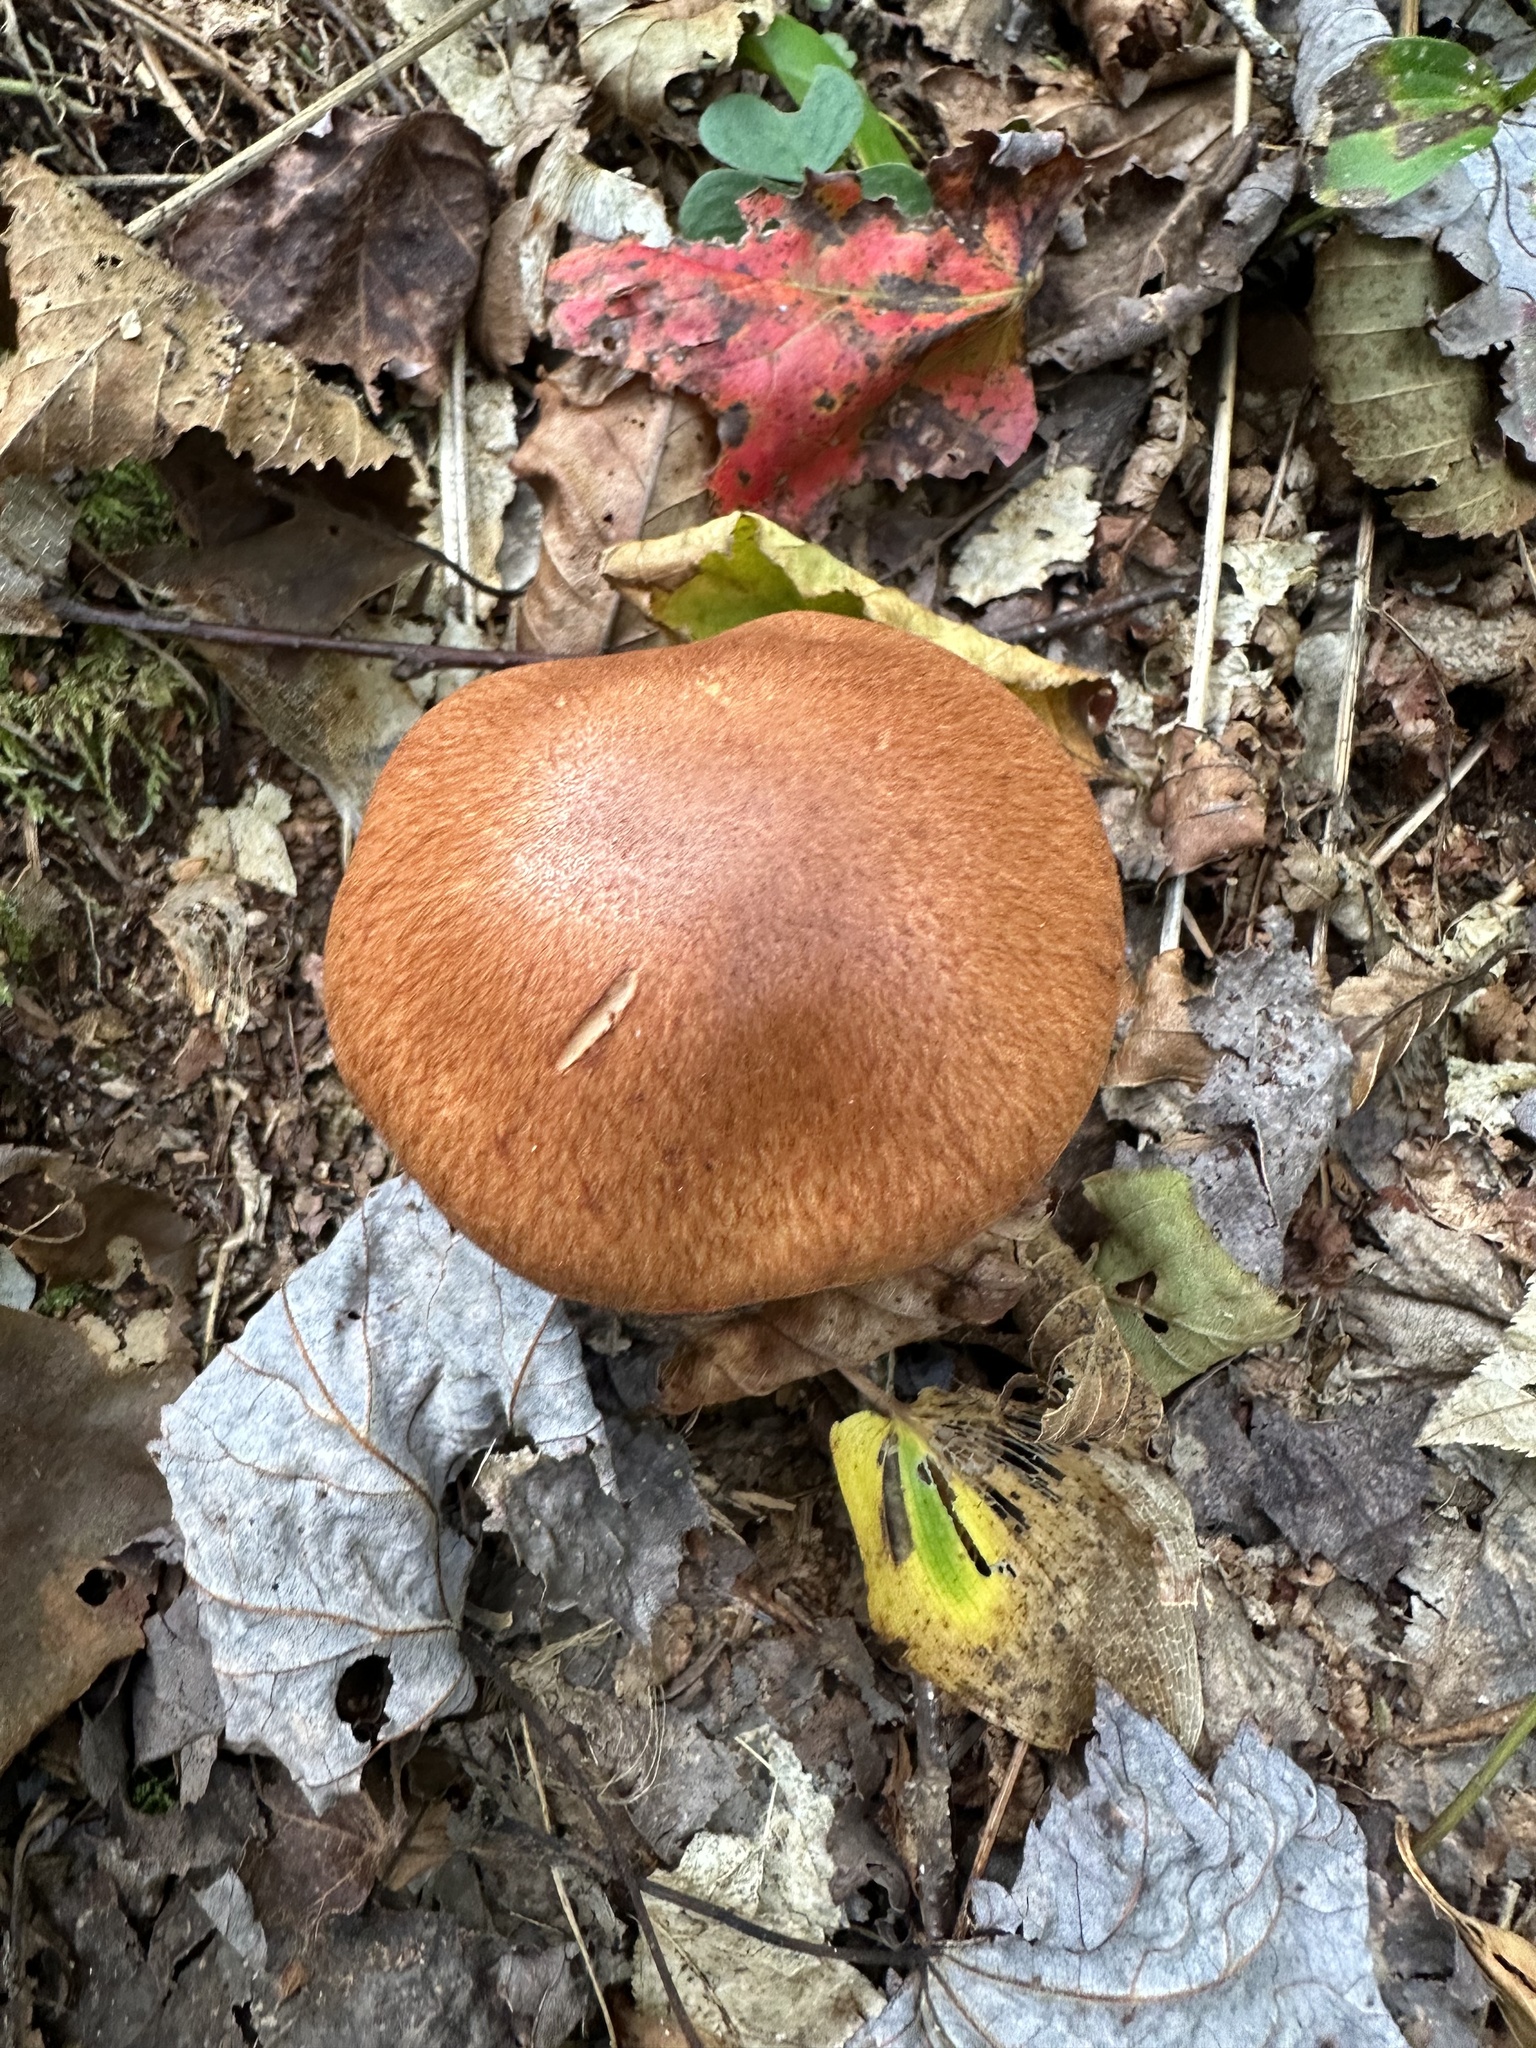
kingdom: Fungi
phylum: Basidiomycota
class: Agaricomycetes
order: Agaricales
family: Cortinariaceae
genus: Cortinarius
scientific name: Cortinarius armillatus
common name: Red banded webcap
